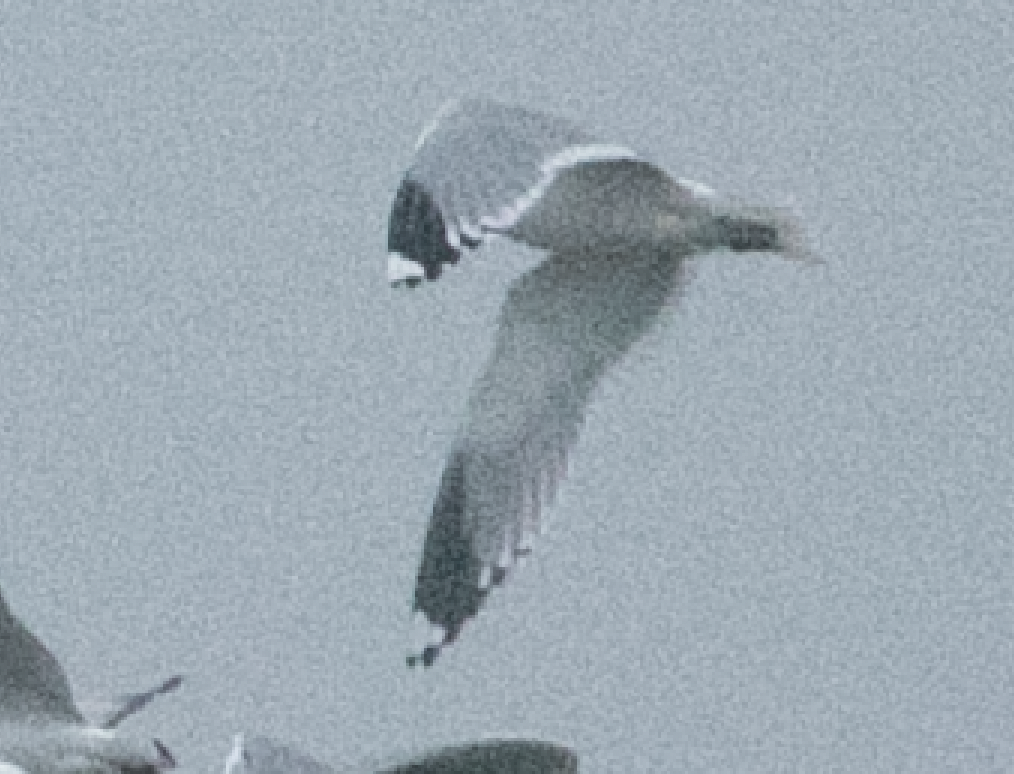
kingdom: Animalia
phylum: Chordata
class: Aves
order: Charadriiformes
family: Laridae
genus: Larus
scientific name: Larus canus
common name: Mew gull
